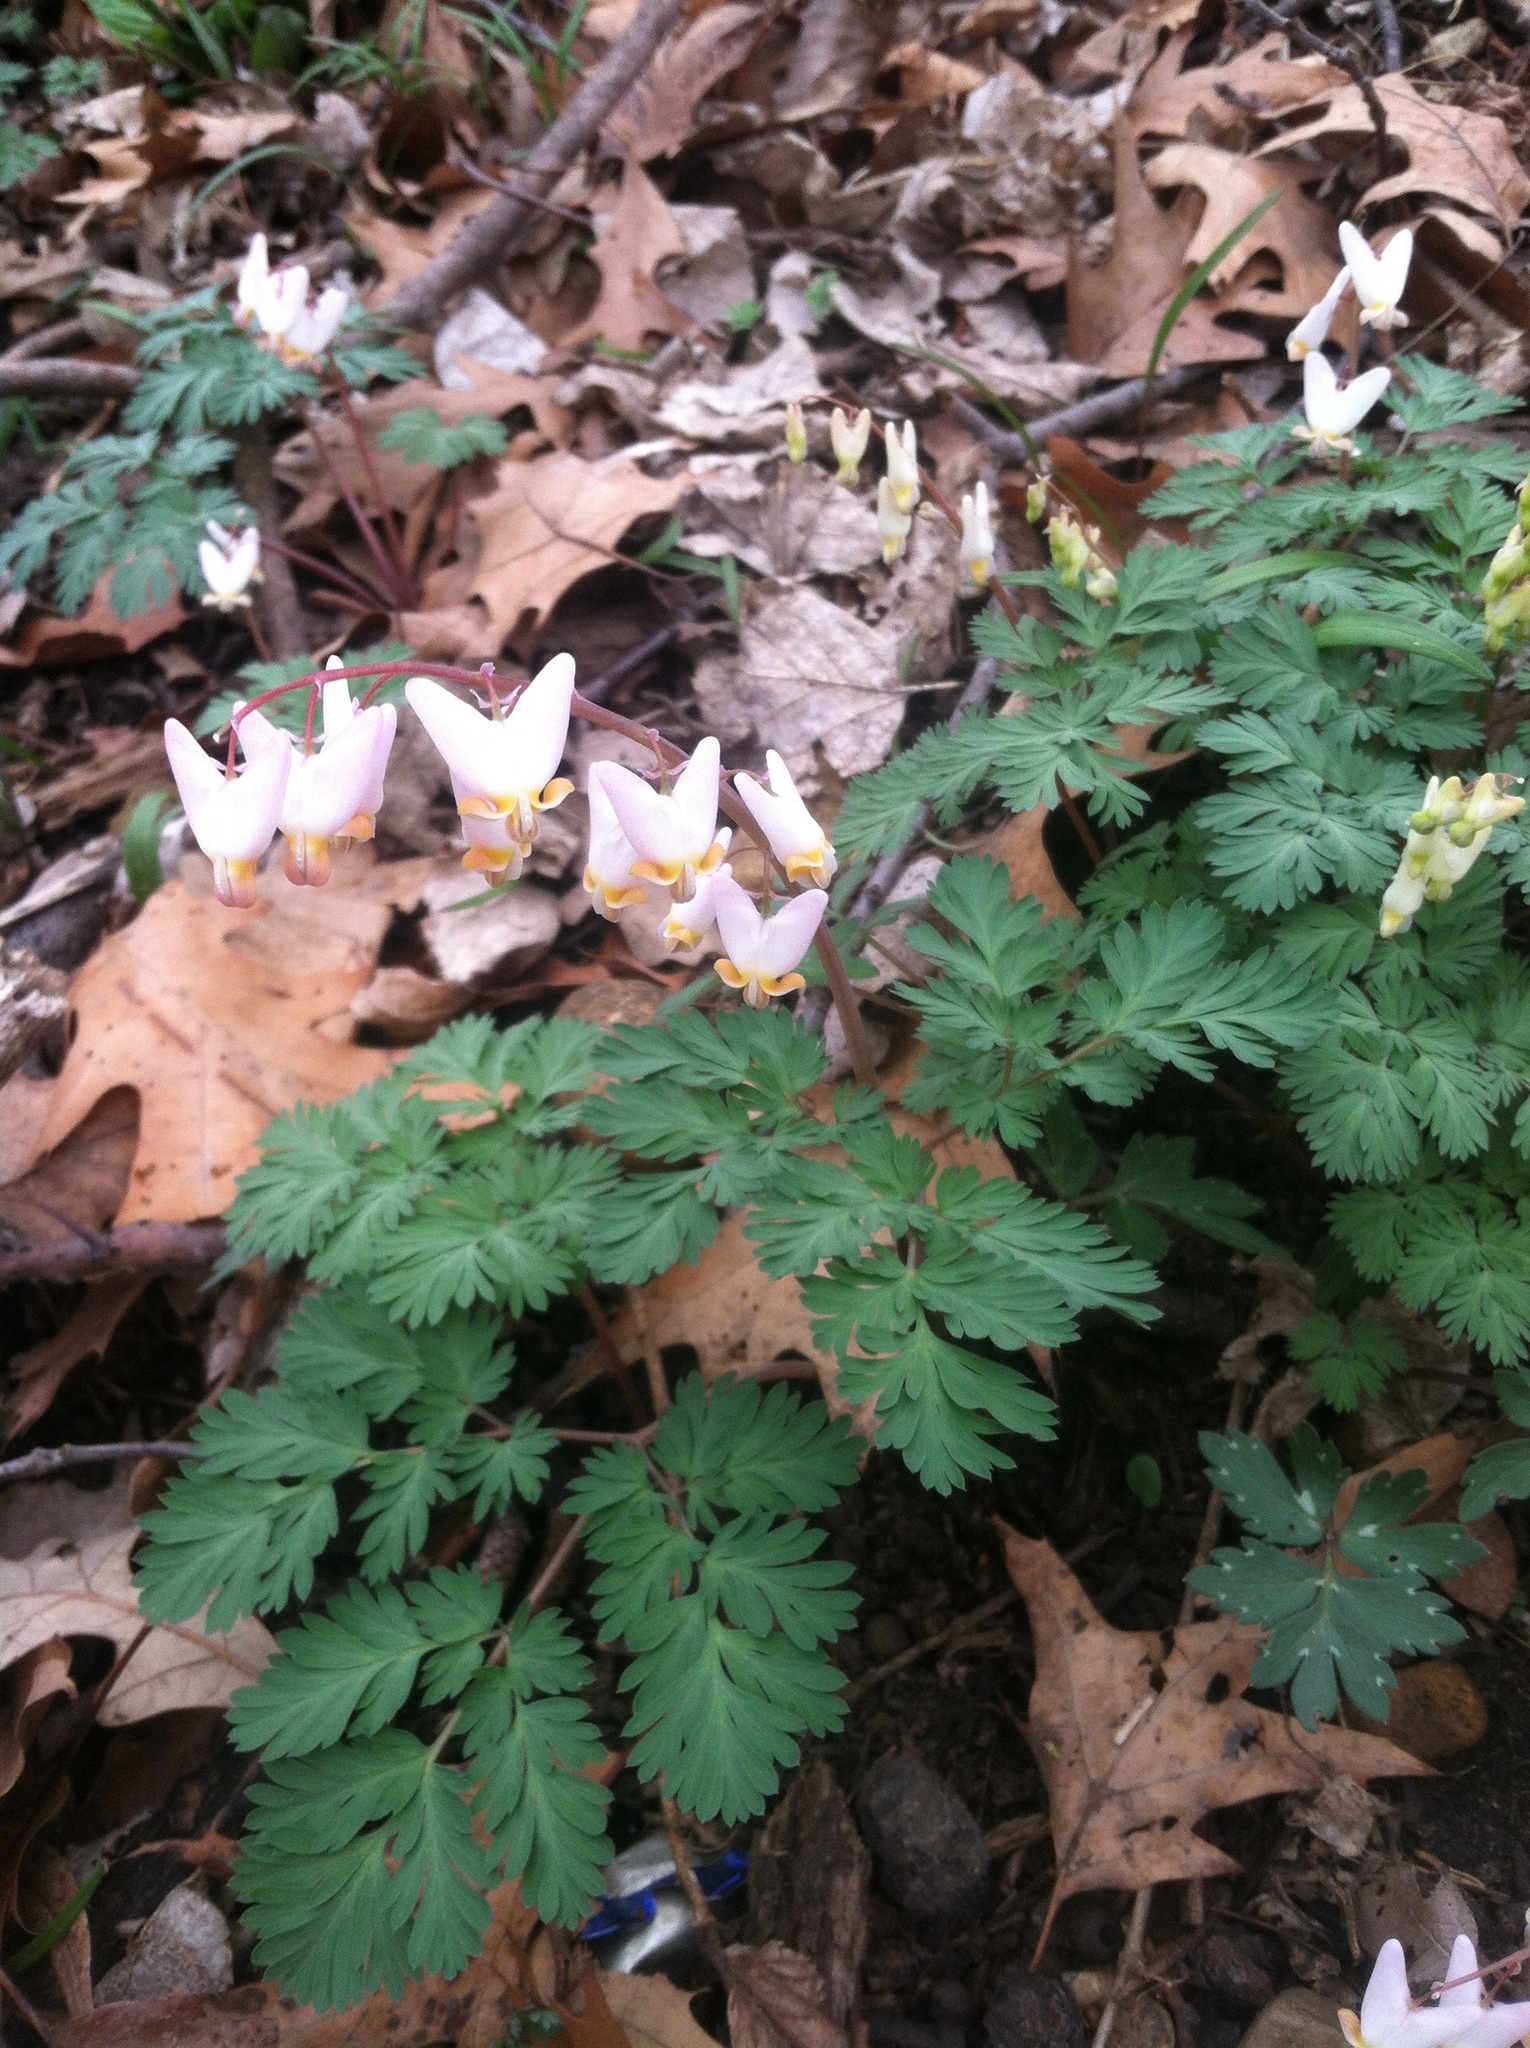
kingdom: Plantae
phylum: Tracheophyta
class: Magnoliopsida
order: Ranunculales
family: Papaveraceae
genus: Dicentra
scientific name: Dicentra cucullaria
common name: Dutchman's breeches
